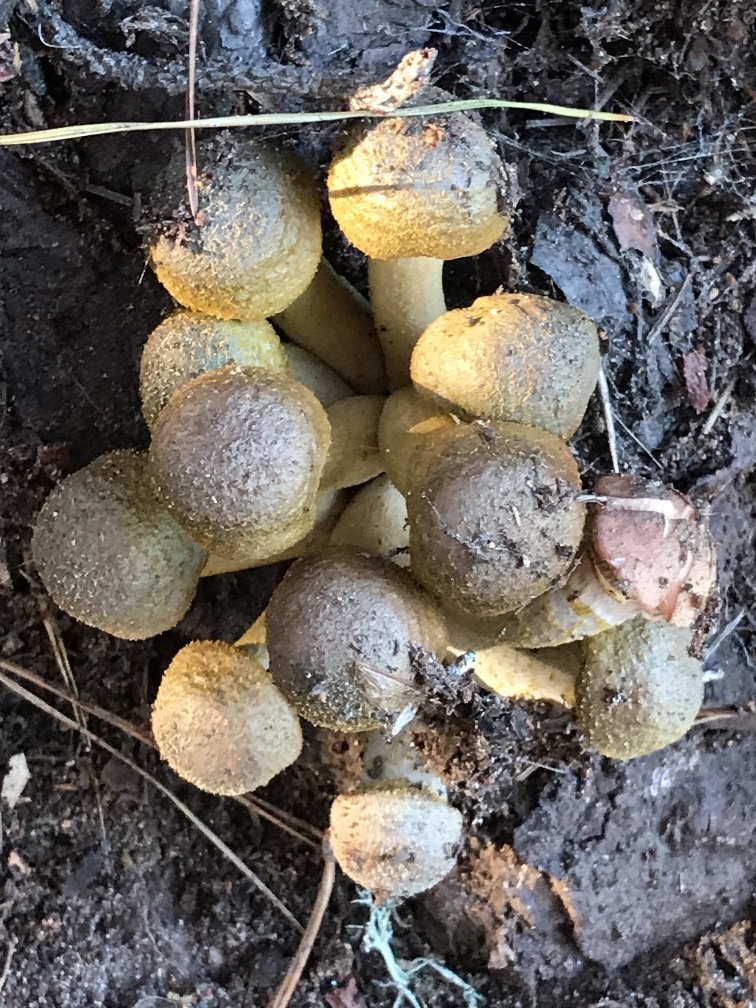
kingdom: Fungi
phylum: Basidiomycota
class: Agaricomycetes
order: Agaricales
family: Physalacriaceae
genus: Armillaria
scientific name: Armillaria mellea
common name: Honey fungus
